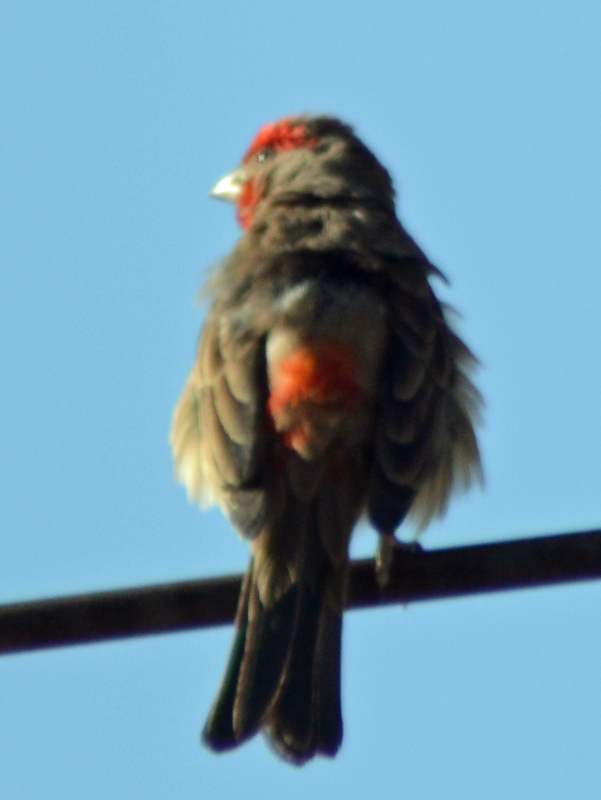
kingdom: Animalia
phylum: Chordata
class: Aves
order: Passeriformes
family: Fringillidae
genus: Haemorhous
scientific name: Haemorhous mexicanus
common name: House finch
